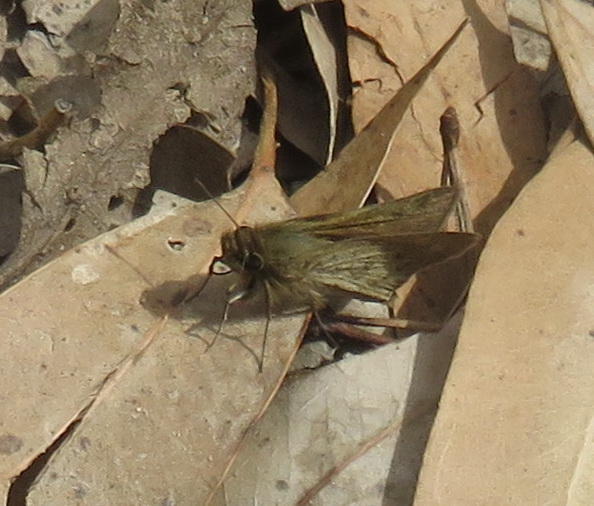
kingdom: Animalia
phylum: Arthropoda
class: Insecta
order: Lepidoptera
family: Hesperiidae
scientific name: Hesperiidae
